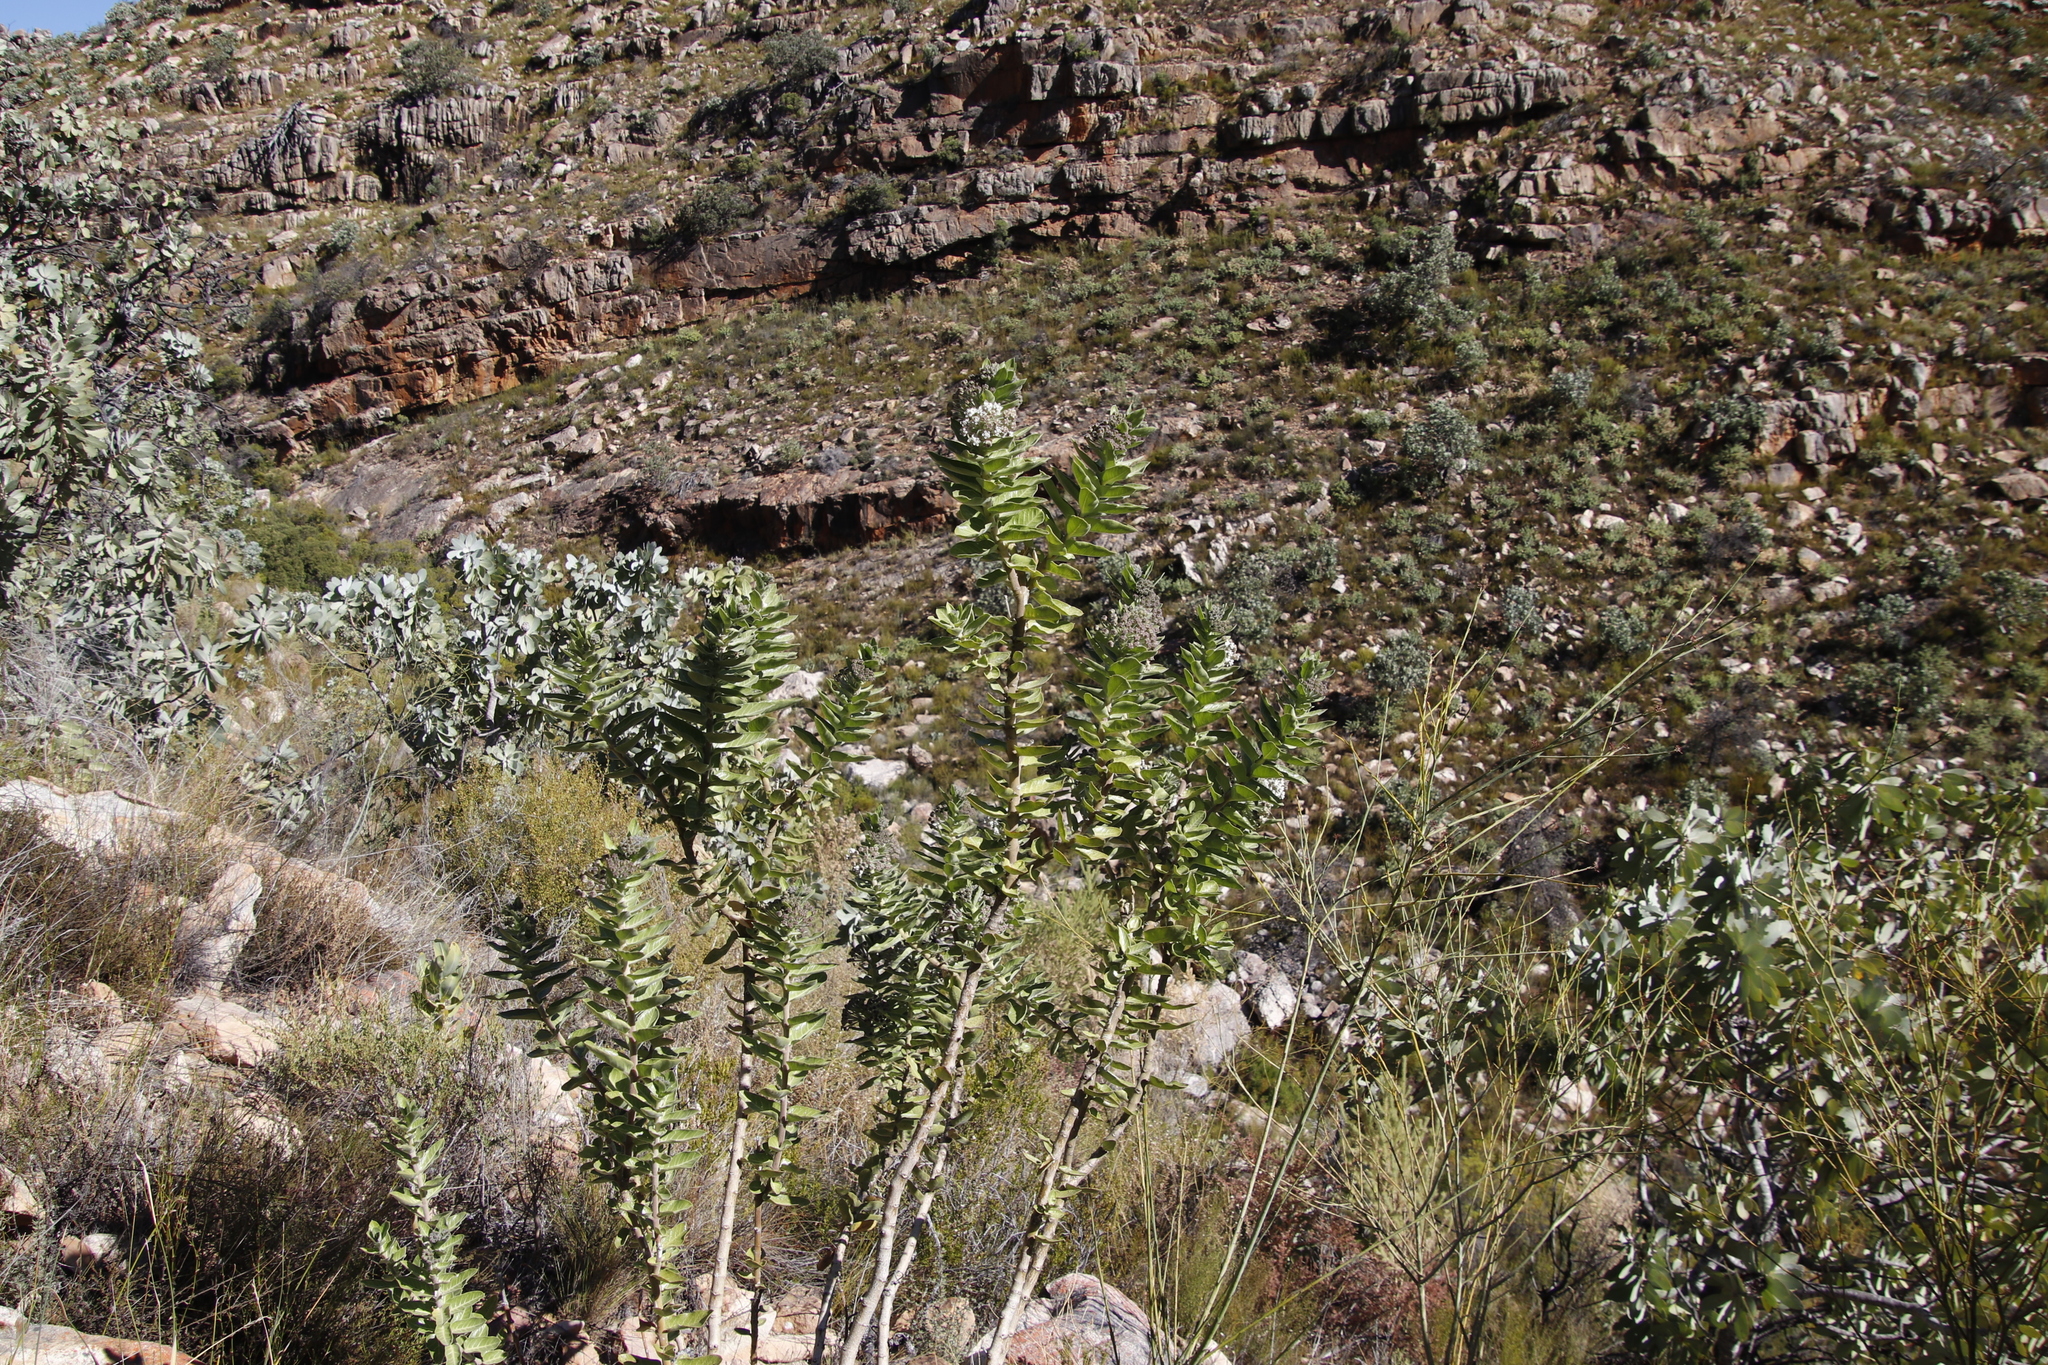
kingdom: Plantae
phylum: Tracheophyta
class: Magnoliopsida
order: Gentianales
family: Apocynaceae
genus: Gomphocarpus
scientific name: Gomphocarpus cancellatus
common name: Wild cotton
